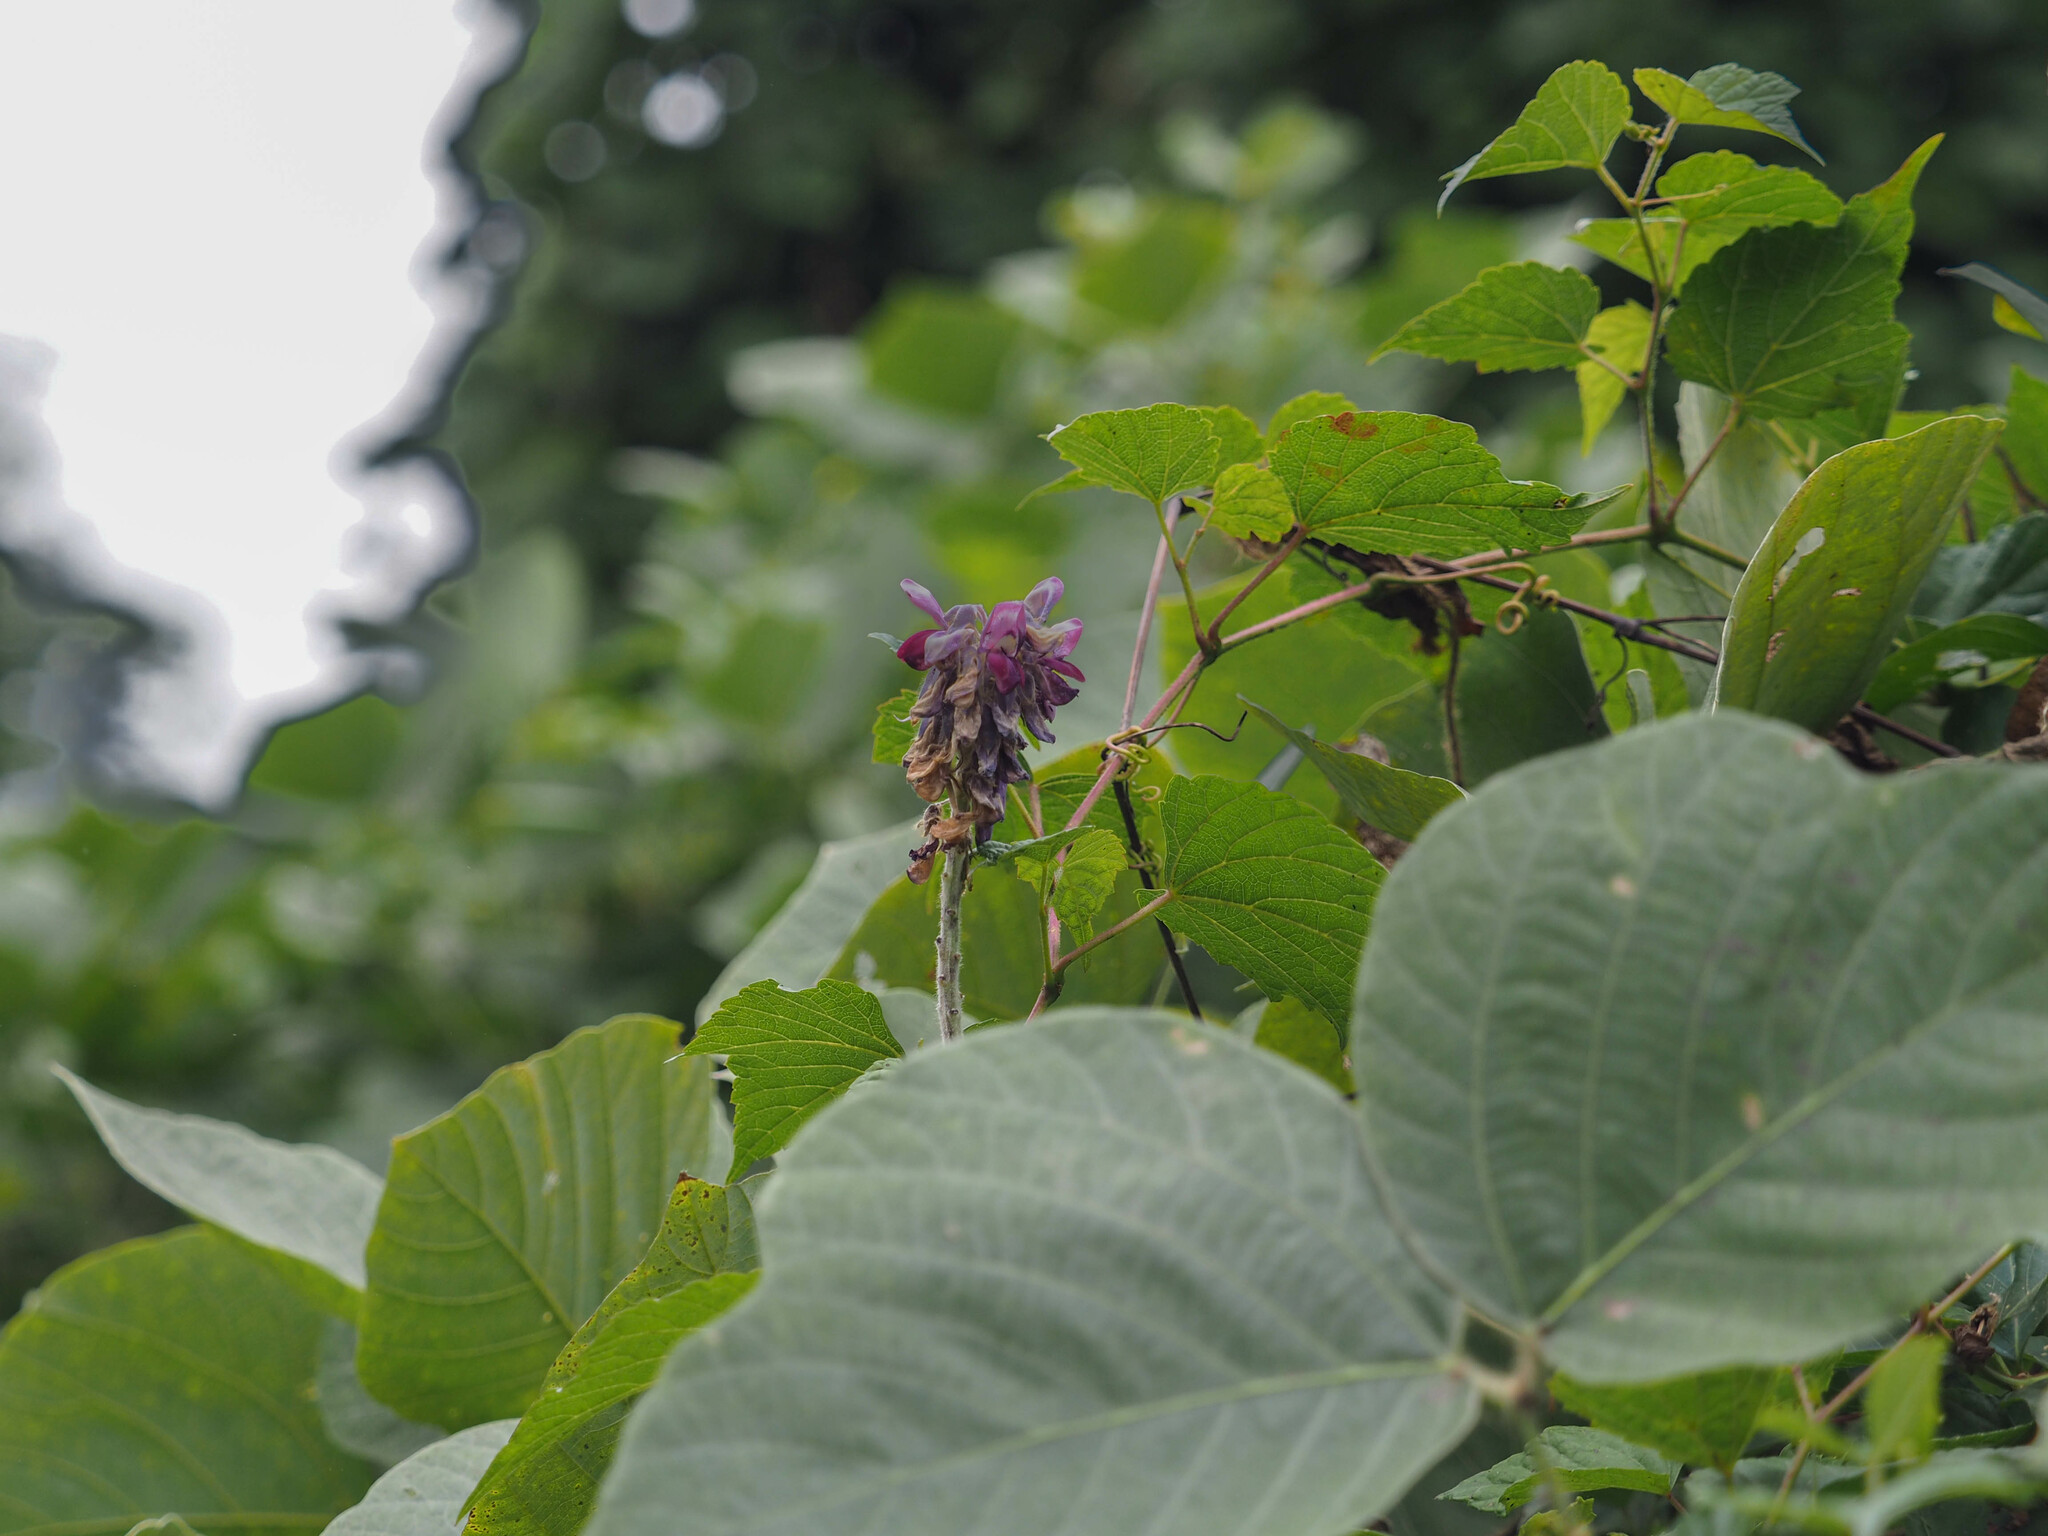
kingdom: Plantae
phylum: Tracheophyta
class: Magnoliopsida
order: Fabales
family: Fabaceae
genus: Pueraria
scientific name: Pueraria montana
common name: Kudzu
